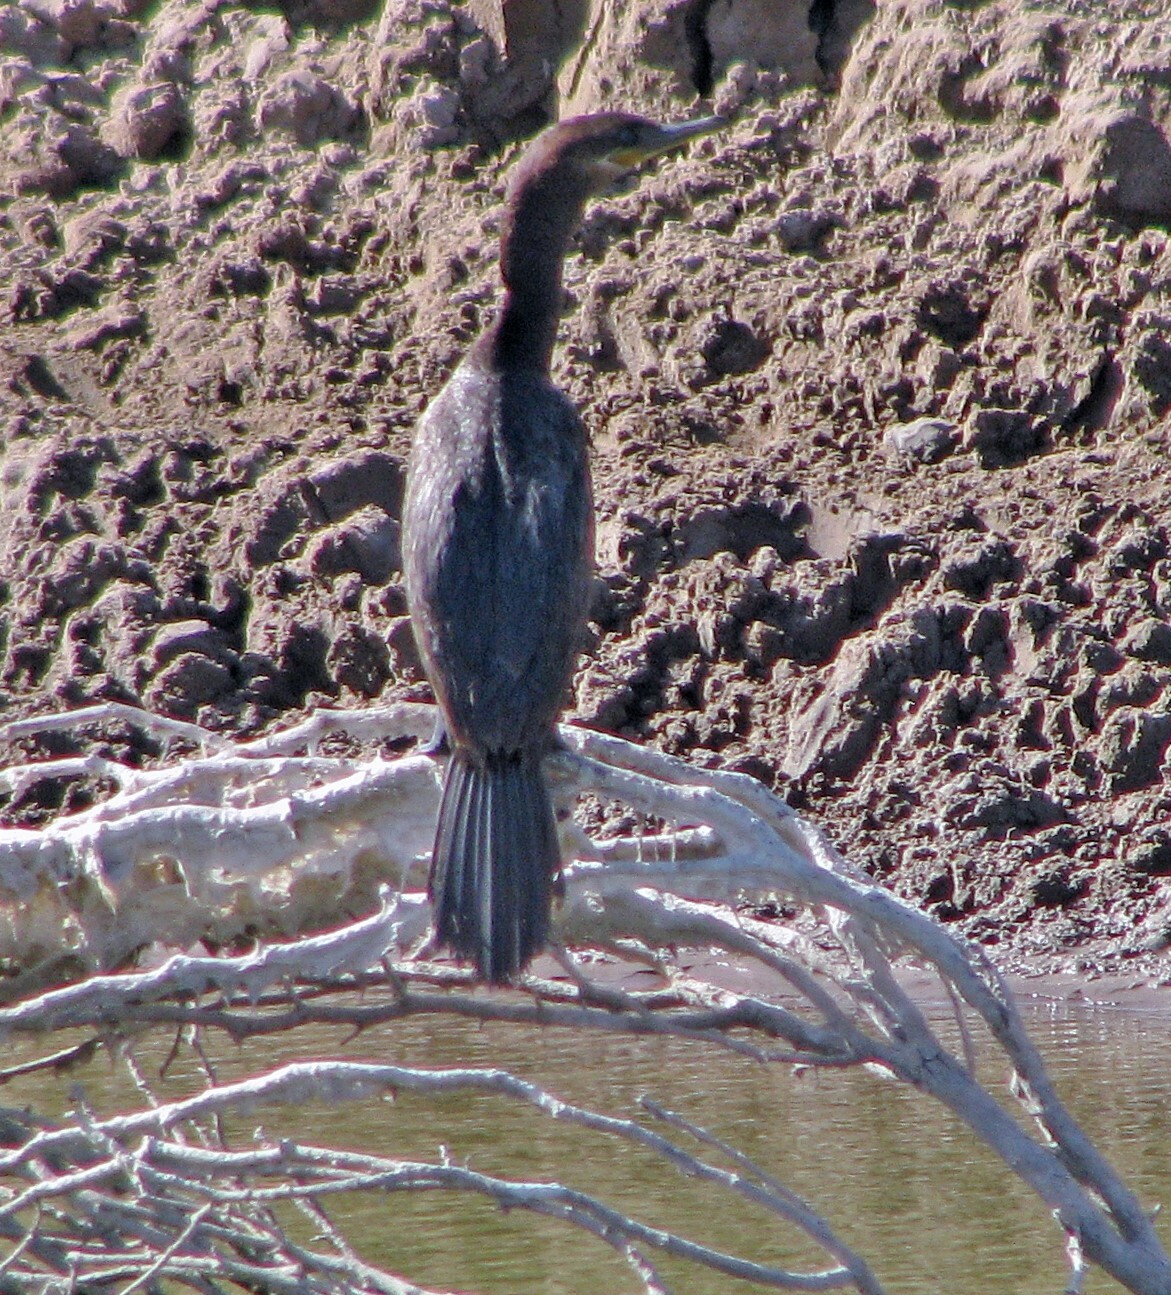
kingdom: Animalia
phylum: Chordata
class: Aves
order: Suliformes
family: Phalacrocoracidae
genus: Phalacrocorax
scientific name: Phalacrocorax brasilianus
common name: Neotropic cormorant
